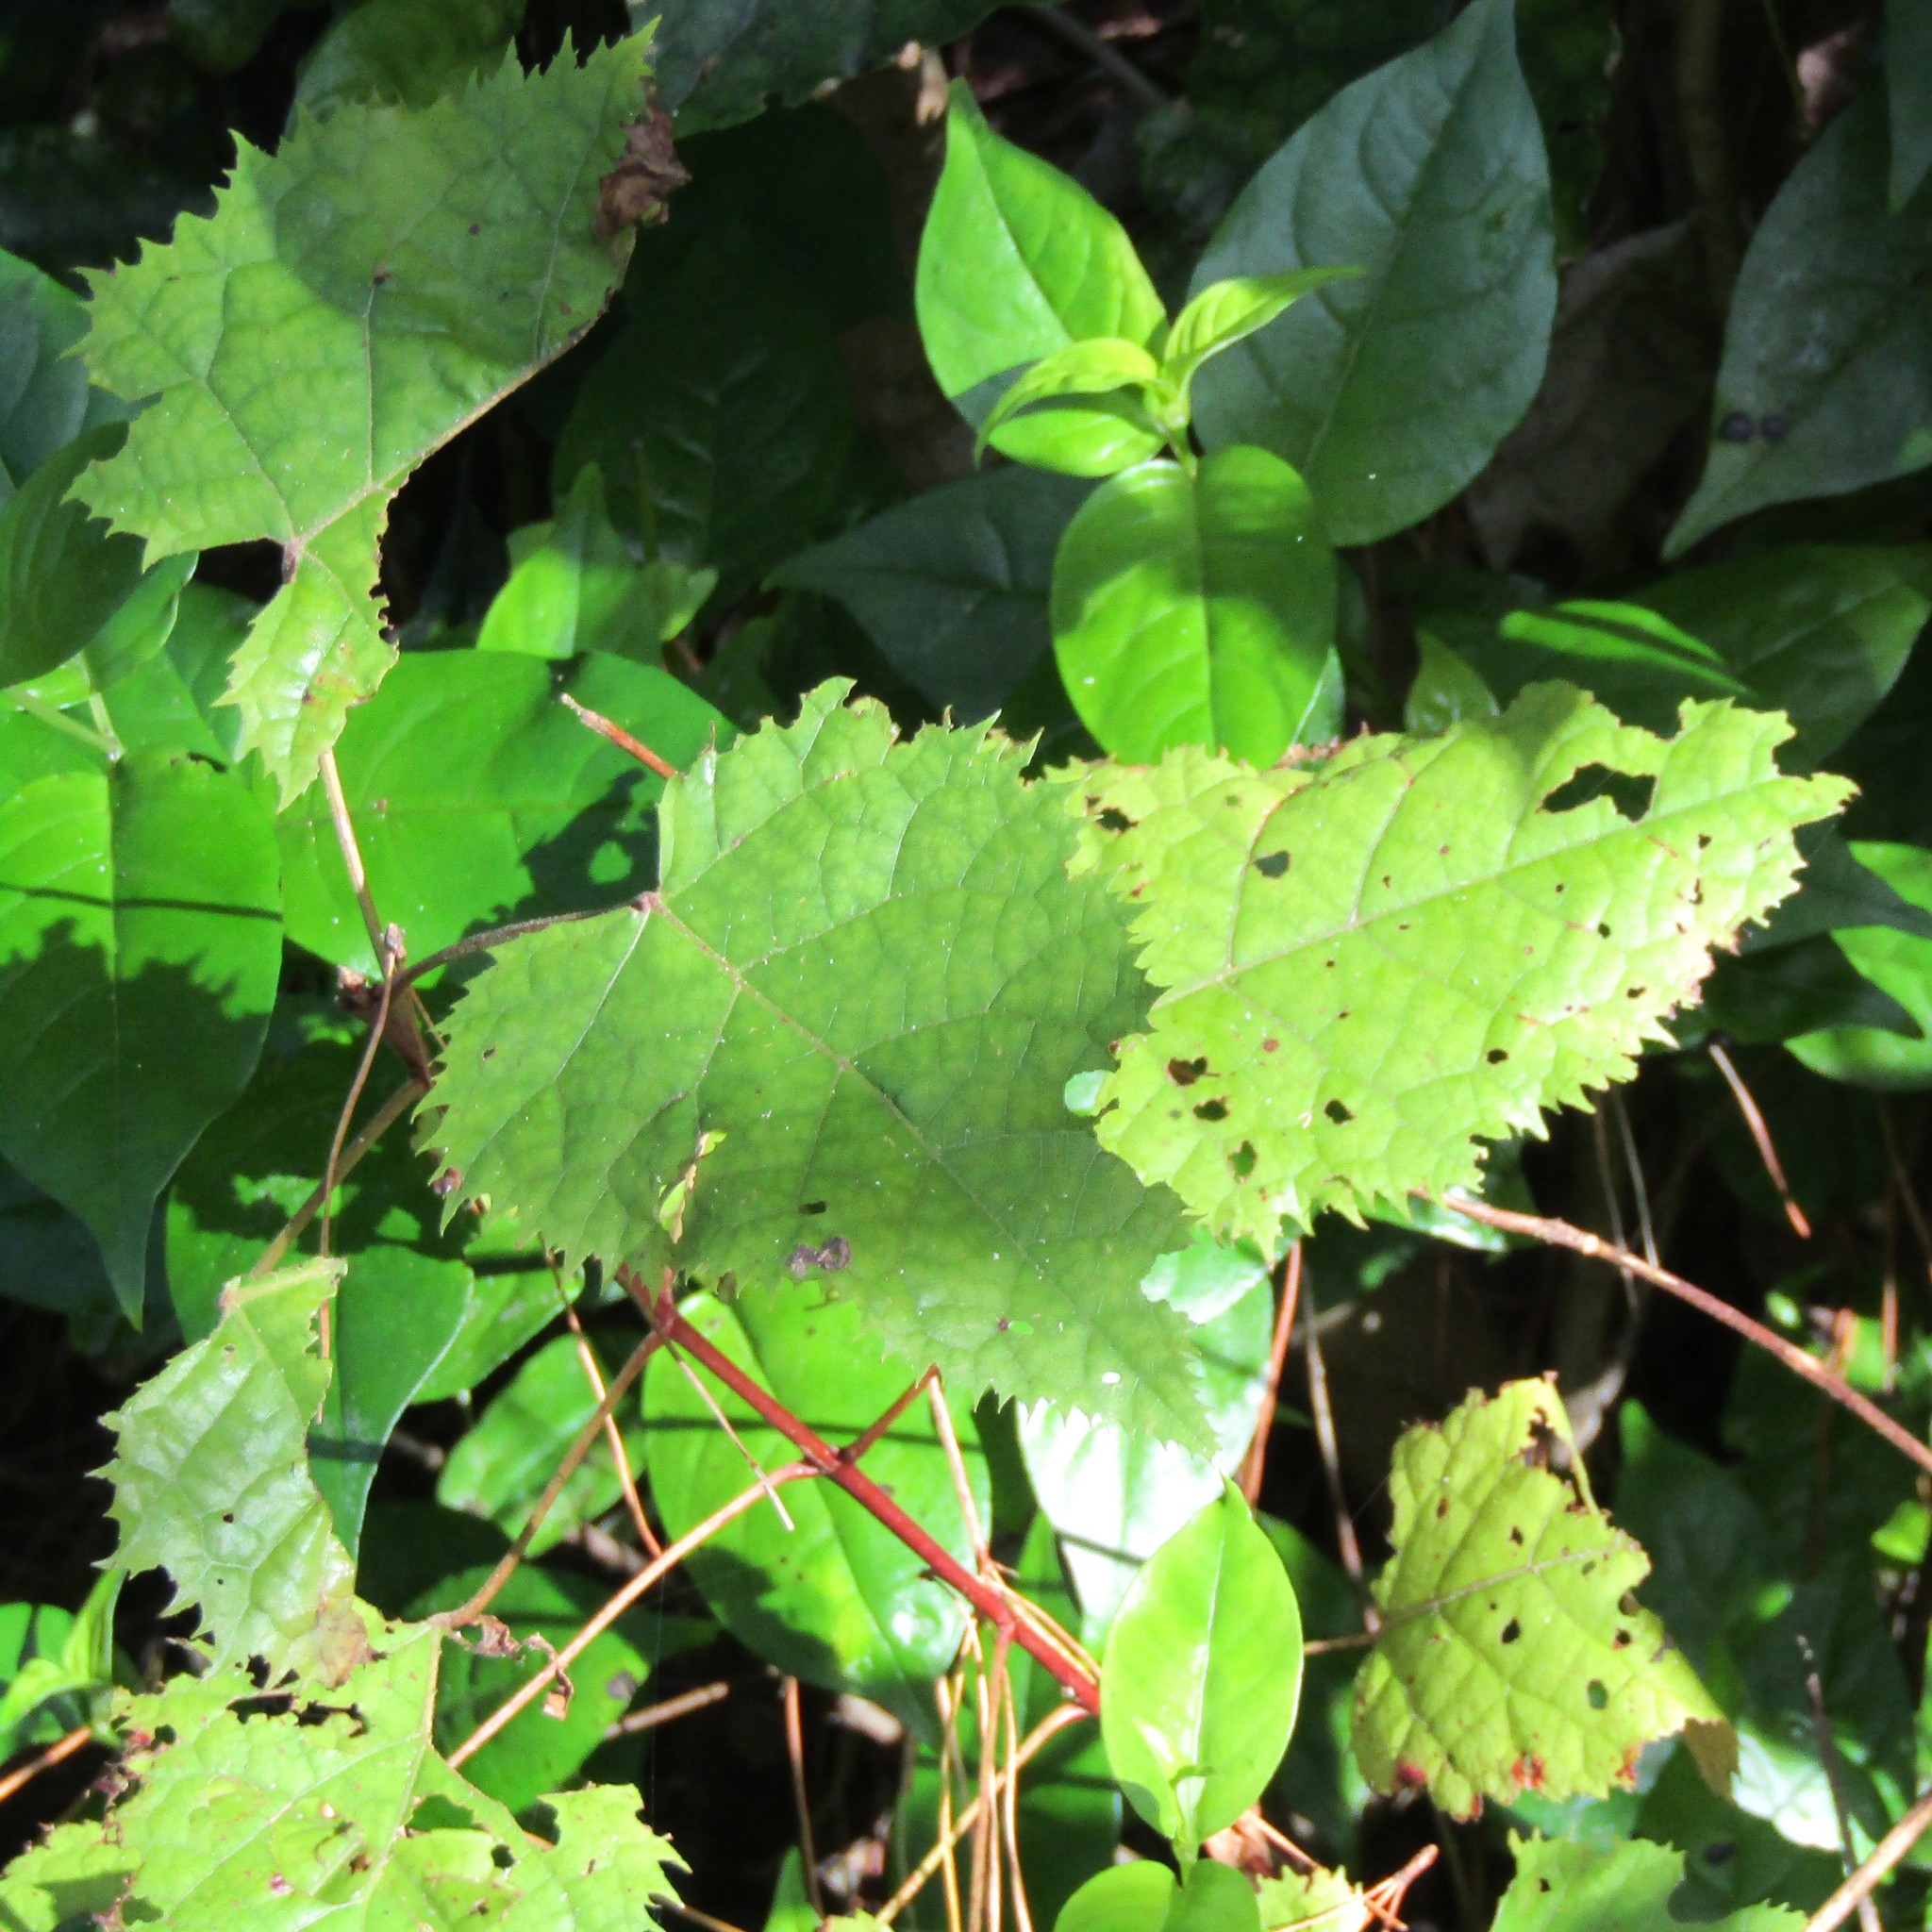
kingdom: Plantae
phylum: Tracheophyta
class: Magnoliopsida
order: Oxalidales
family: Elaeocarpaceae
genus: Aristotelia
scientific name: Aristotelia serrata
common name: New zealand wineberry
